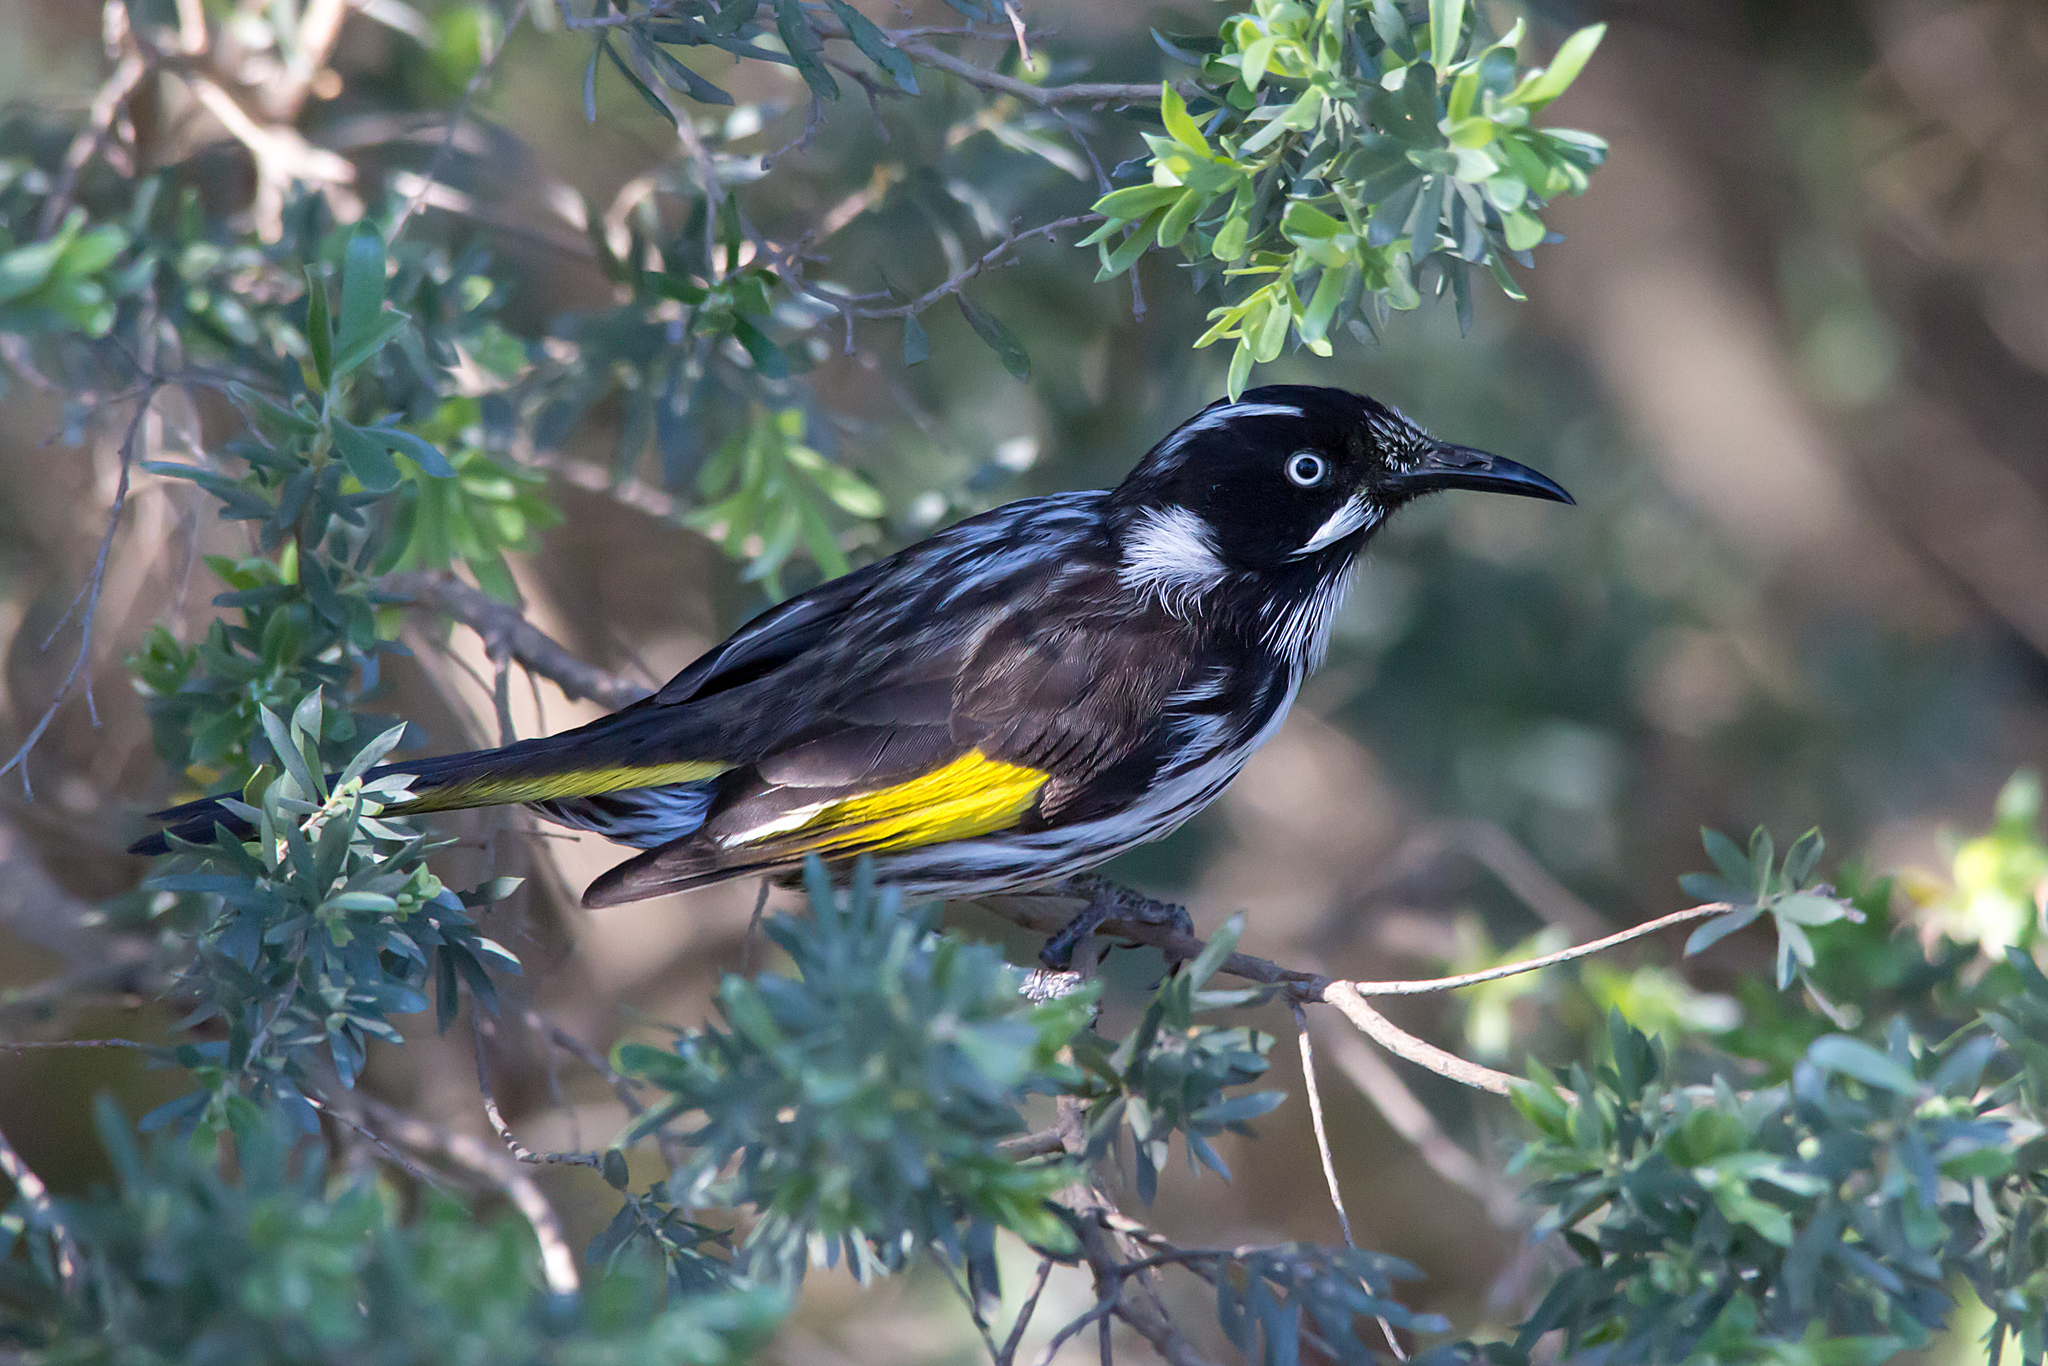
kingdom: Animalia
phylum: Chordata
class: Aves
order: Passeriformes
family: Meliphagidae
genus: Phylidonyris
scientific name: Phylidonyris novaehollandiae
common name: New holland honeyeater
